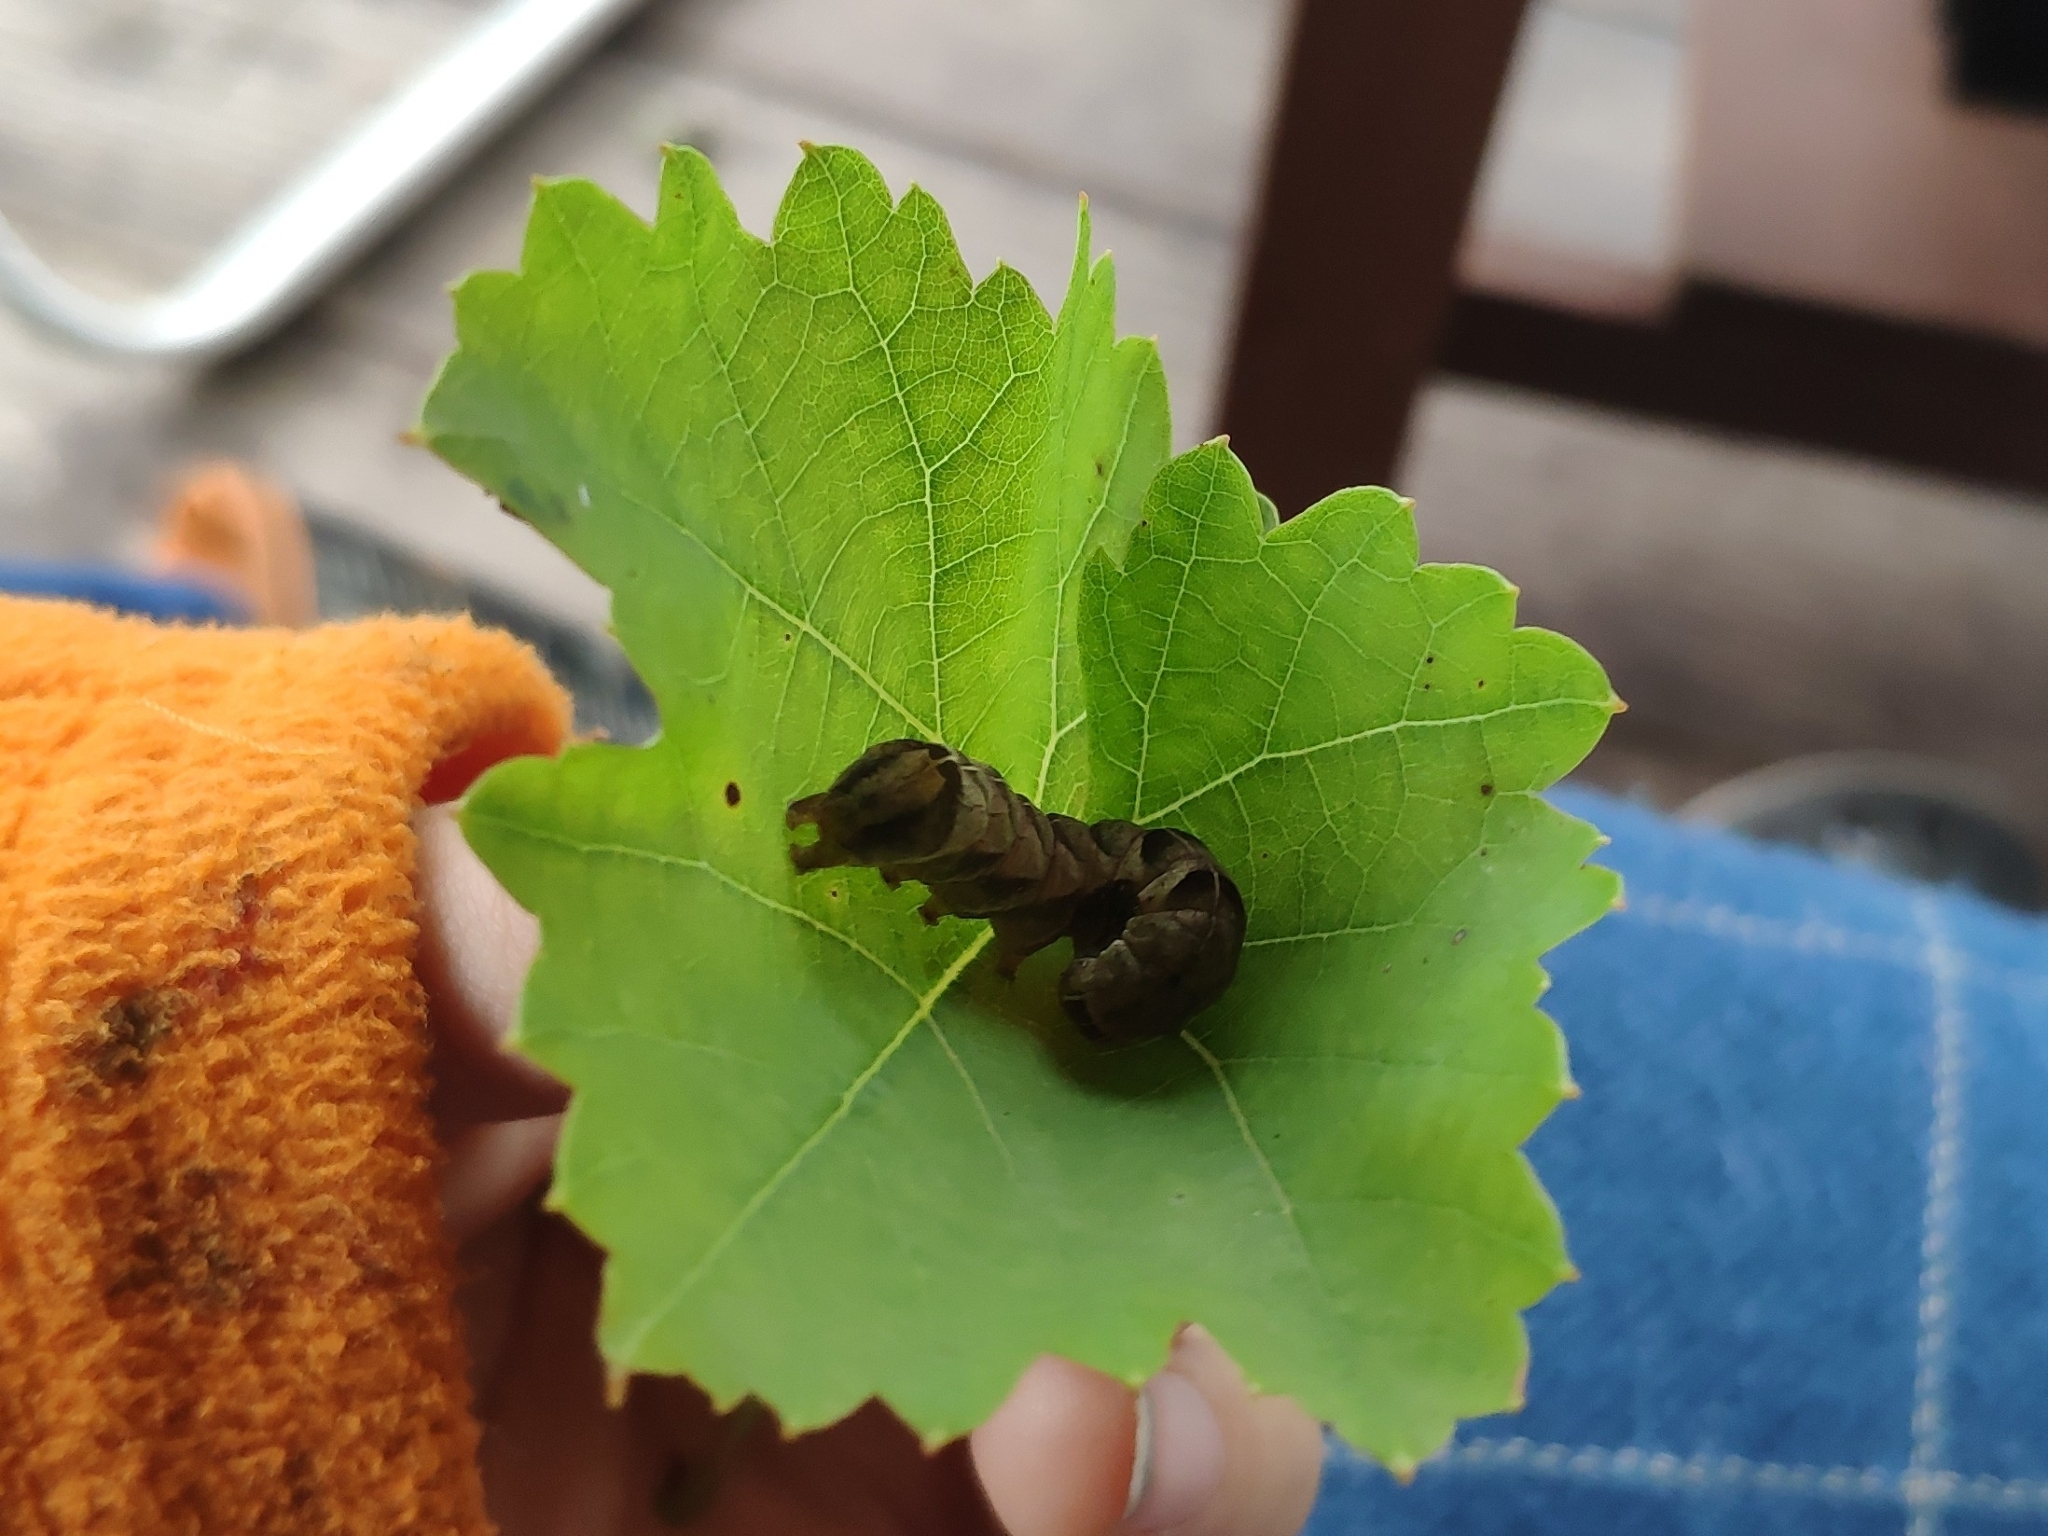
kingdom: Animalia
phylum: Arthropoda
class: Insecta
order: Lepidoptera
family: Noctuidae
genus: Melanchra
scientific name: Melanchra persicariae
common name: Dot moth
